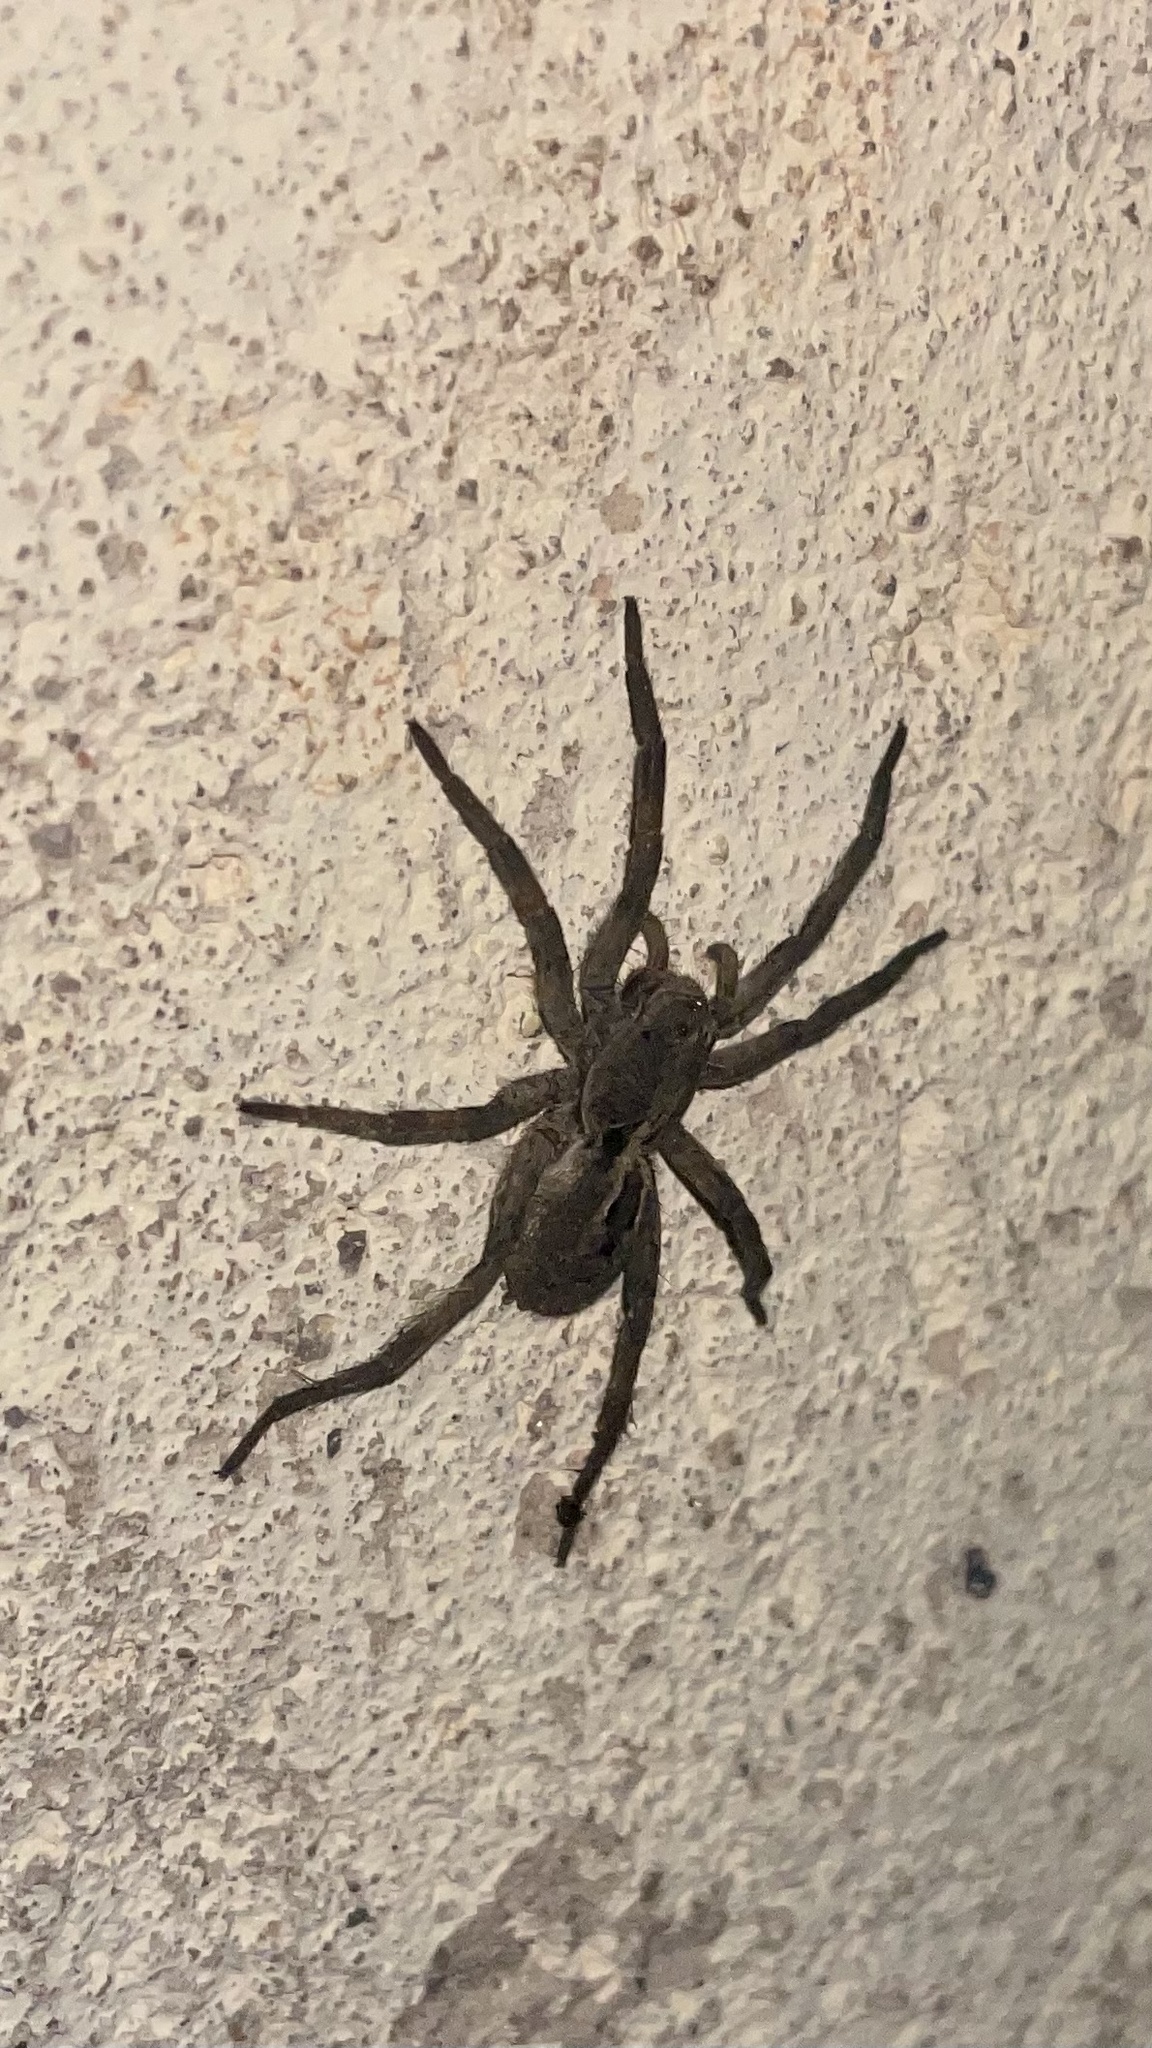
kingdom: Animalia
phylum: Arthropoda
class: Arachnida
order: Araneae
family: Lycosidae
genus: Lycosa
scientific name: Lycosa erythrognatha
